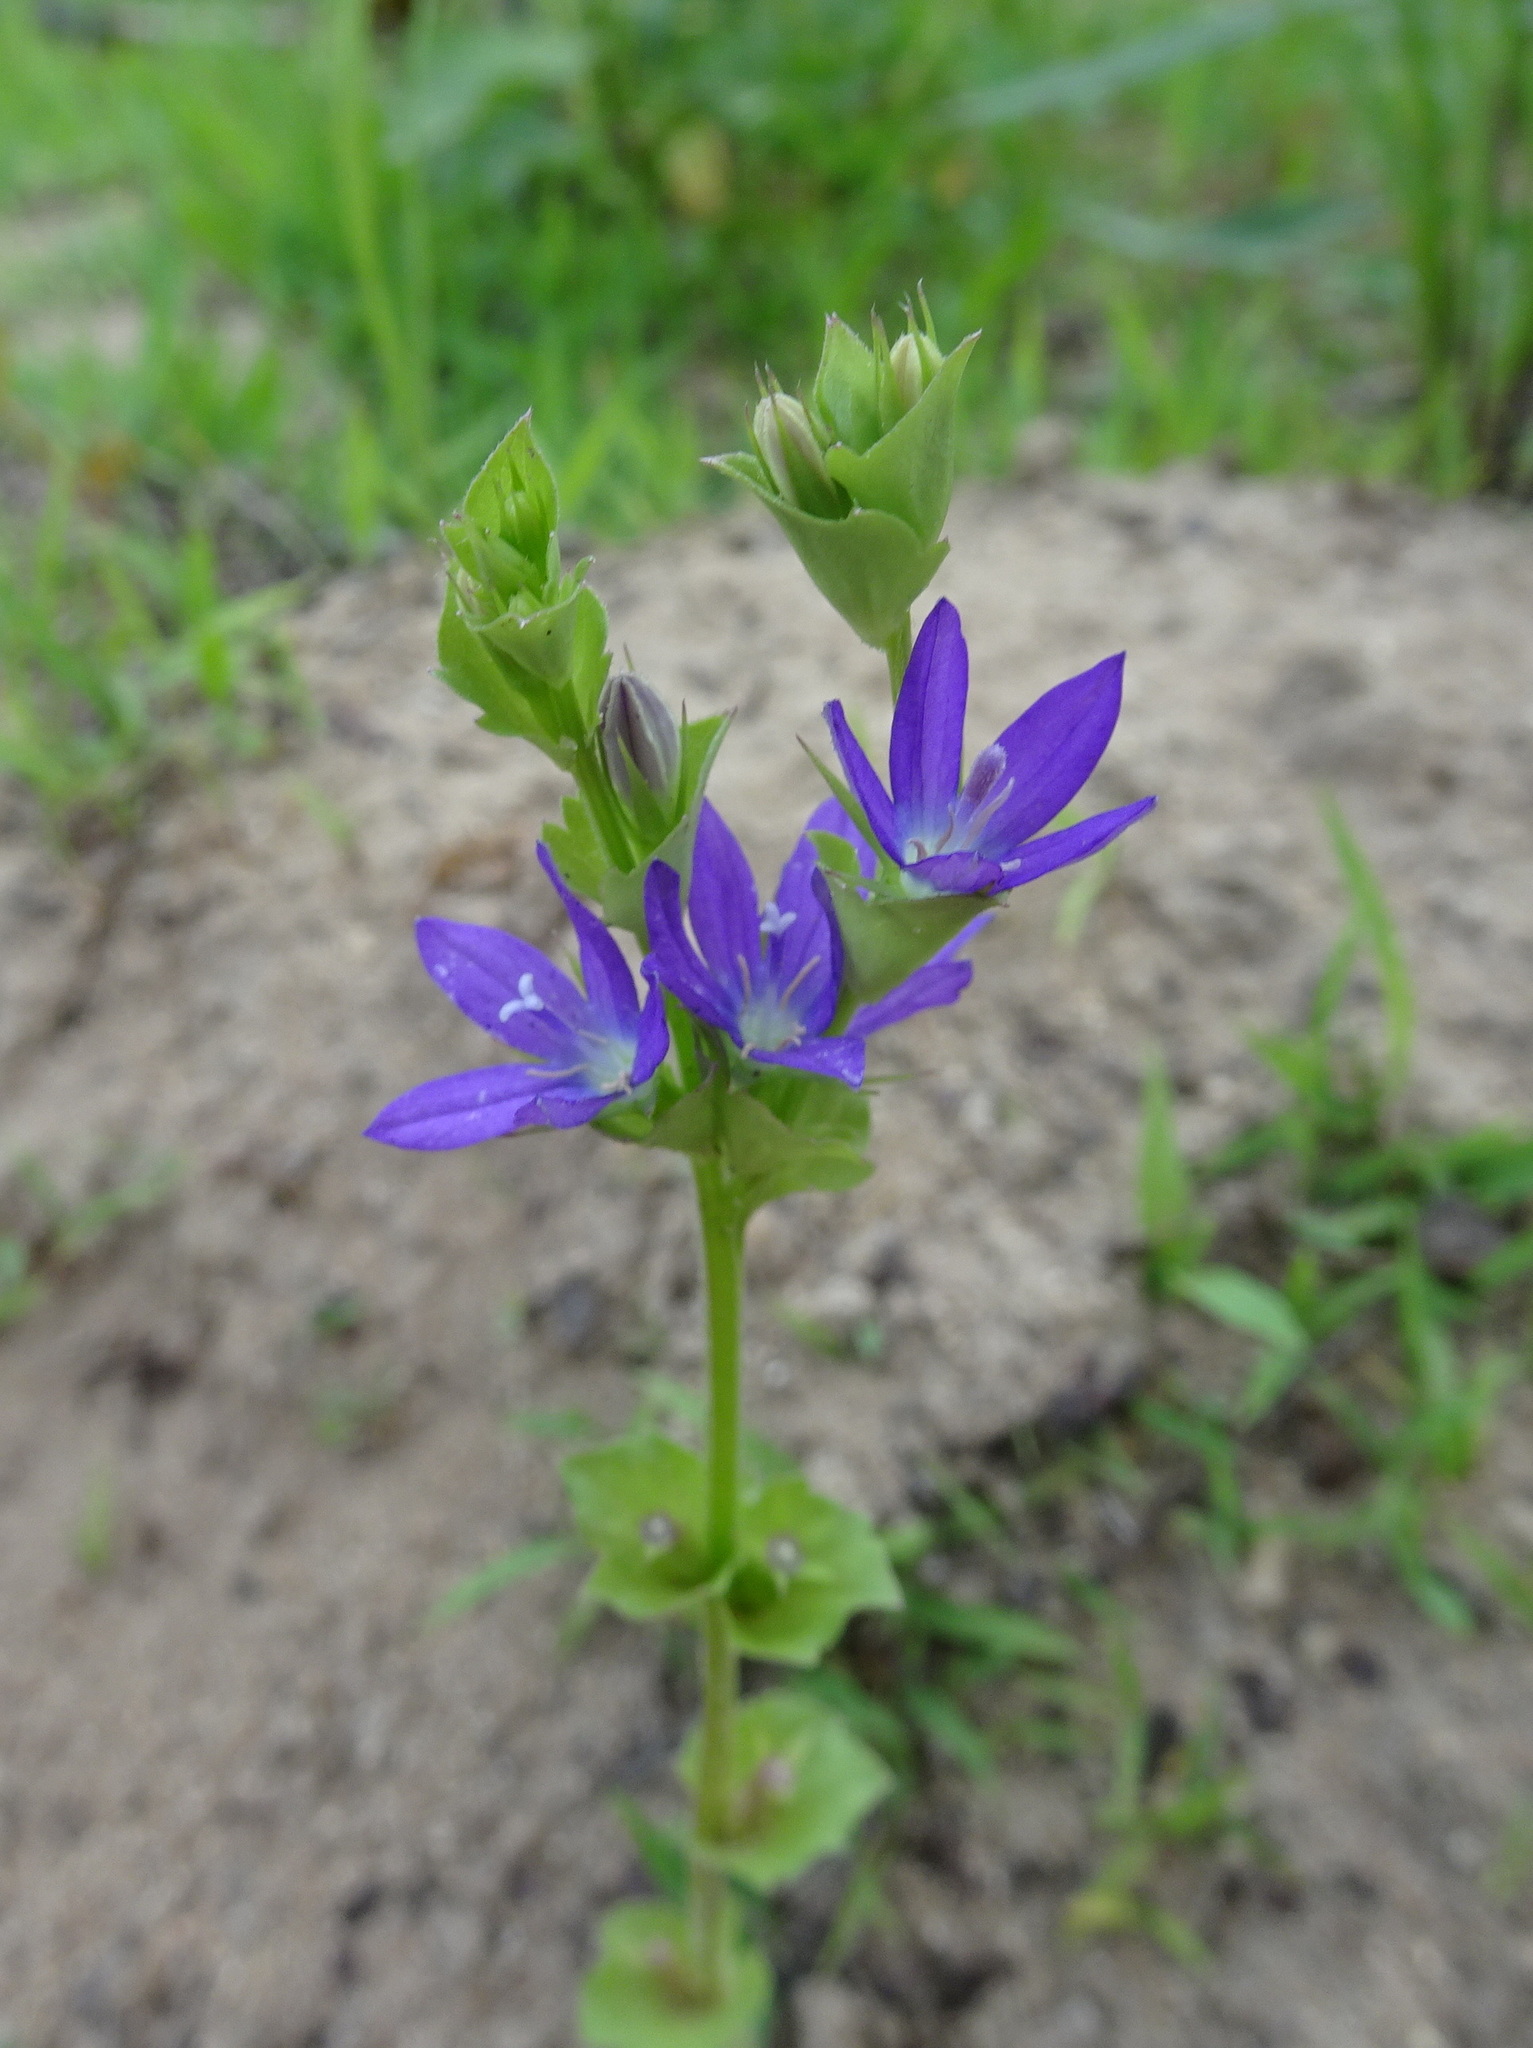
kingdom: Plantae
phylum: Tracheophyta
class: Magnoliopsida
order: Asterales
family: Campanulaceae
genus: Triodanis
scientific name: Triodanis perfoliata
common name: Clasping venus' looking-glass
